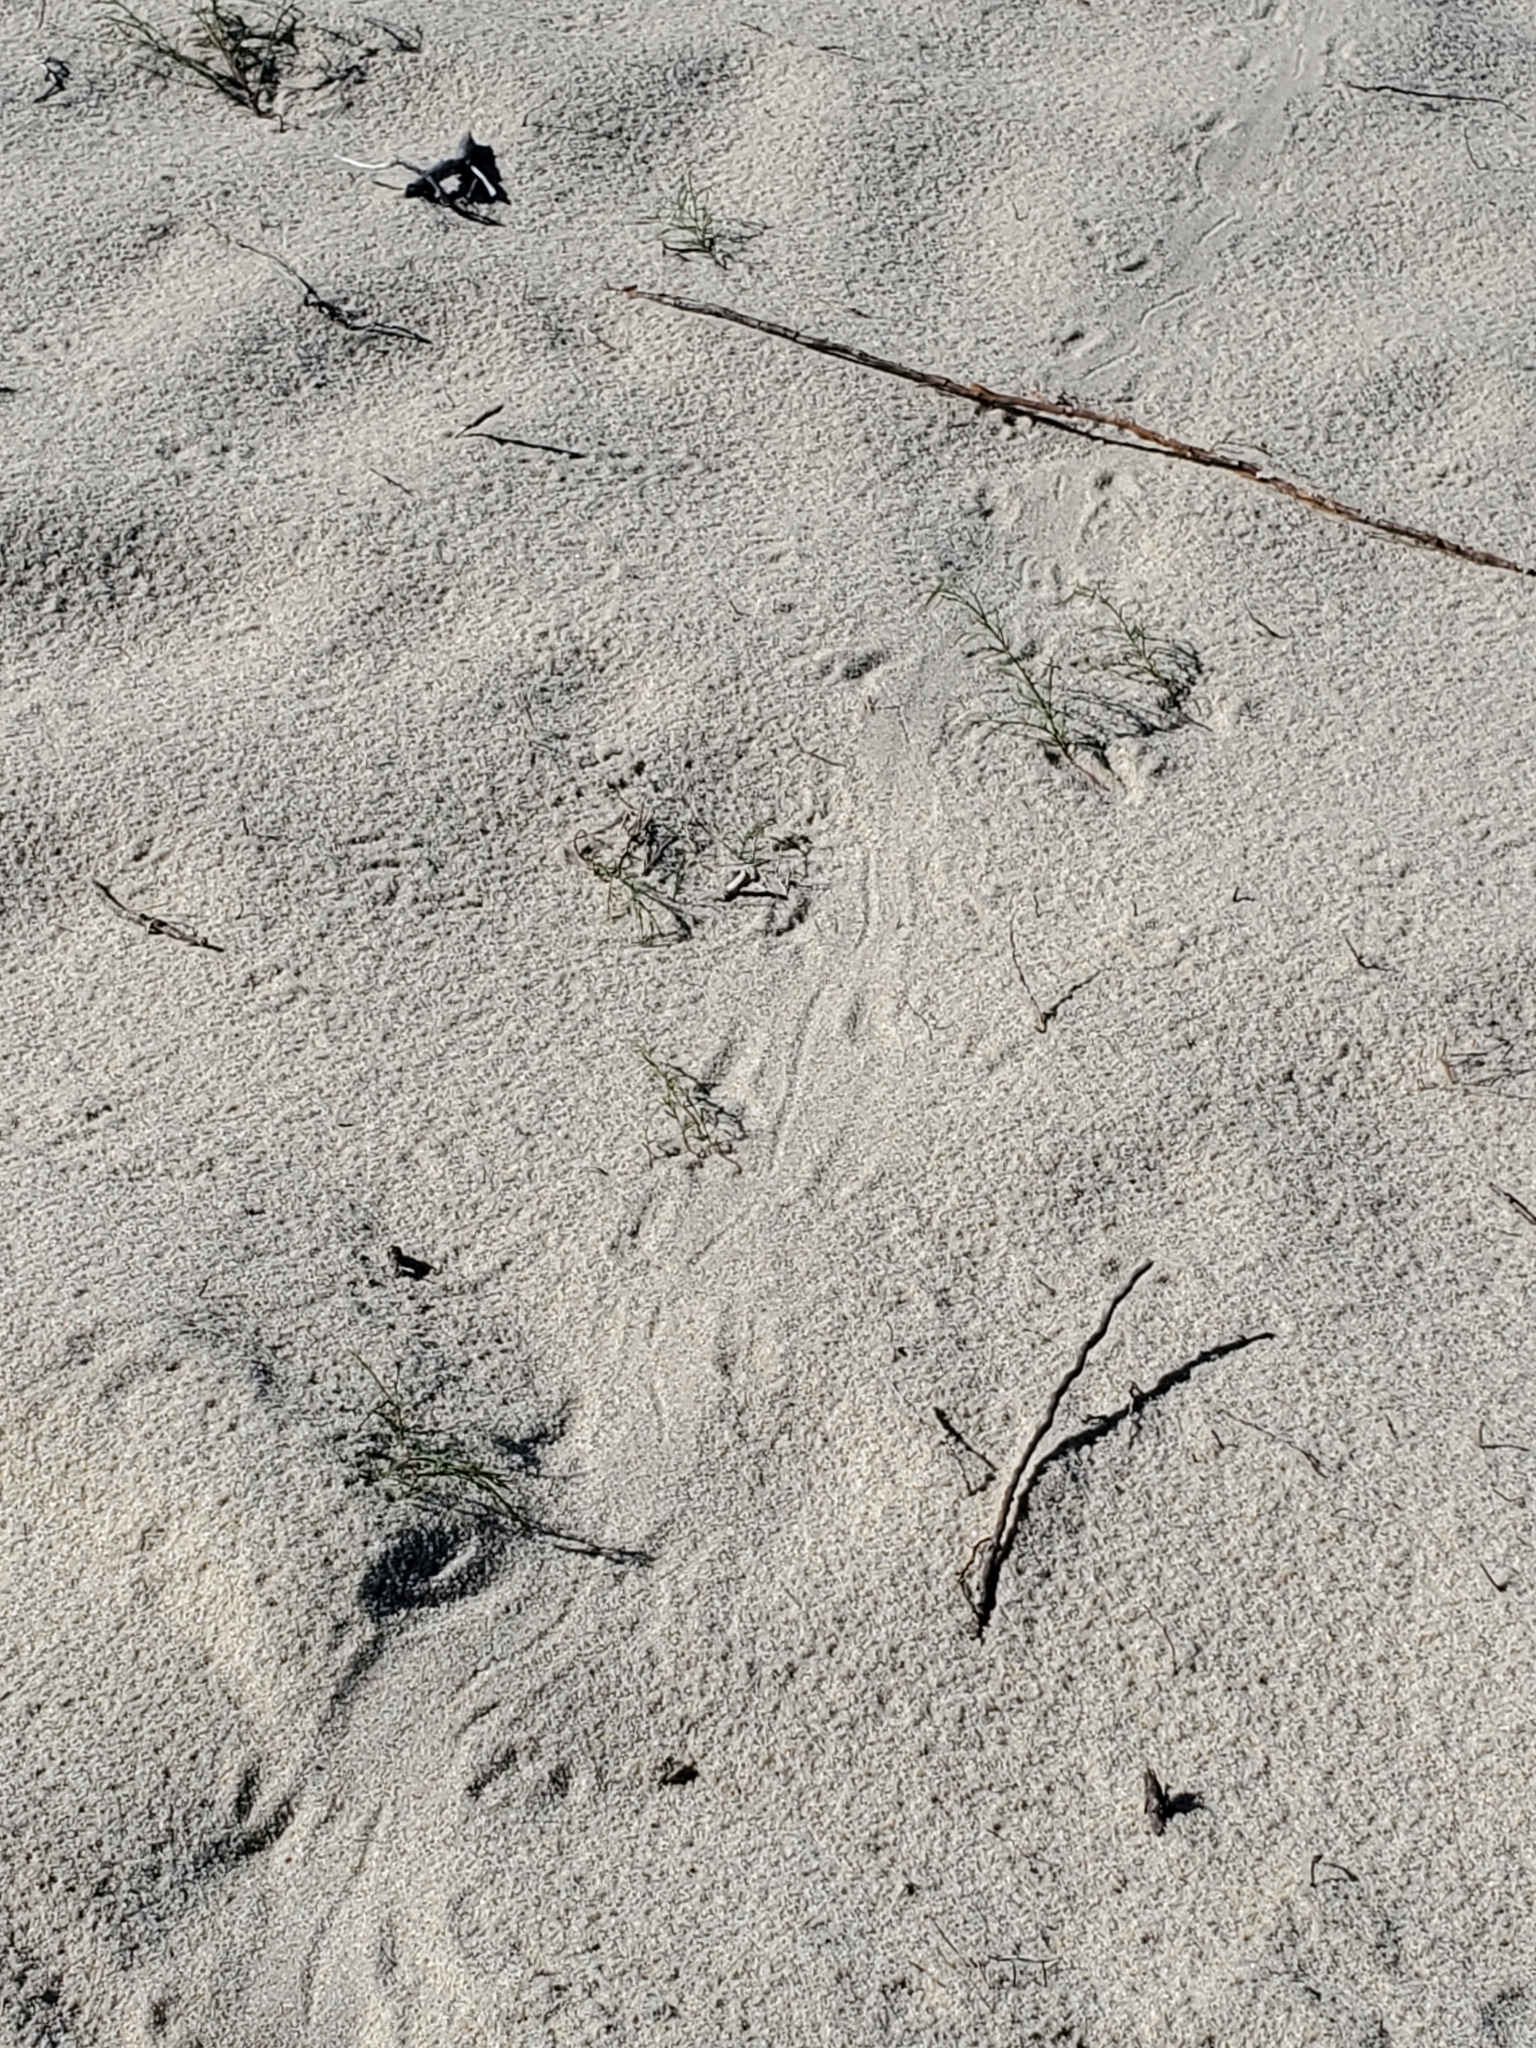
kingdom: Animalia
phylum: Chordata
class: Testudines
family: Emydidae
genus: Terrapene
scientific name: Terrapene carolina
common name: Common box turtle
